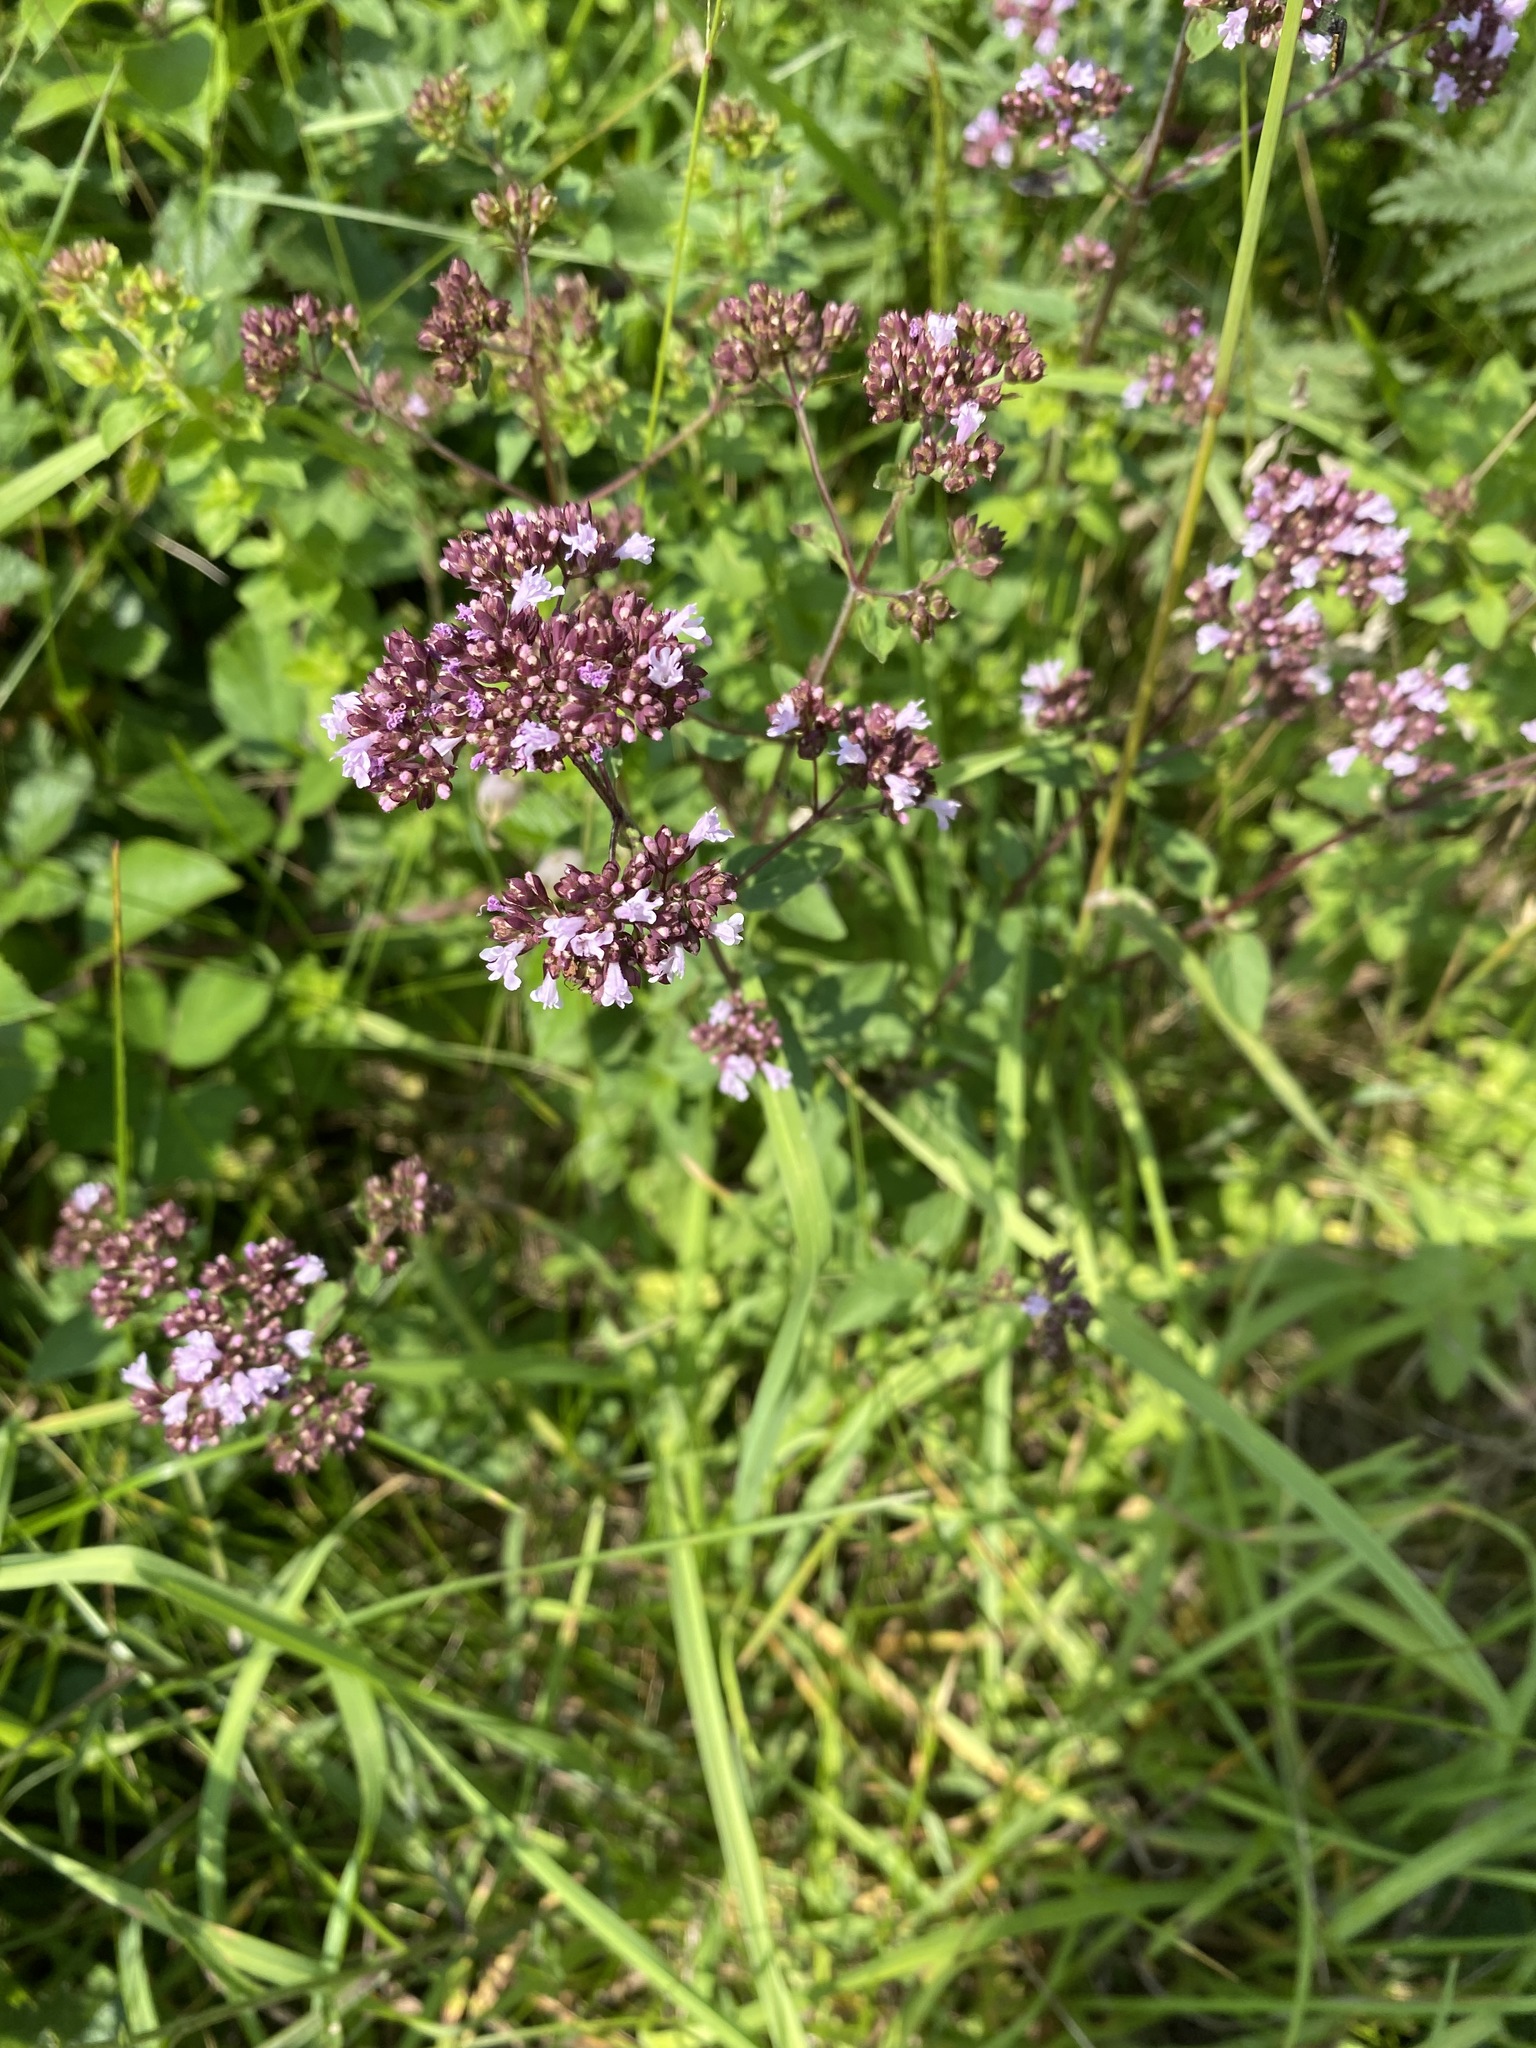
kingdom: Plantae
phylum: Tracheophyta
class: Magnoliopsida
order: Lamiales
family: Lamiaceae
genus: Origanum
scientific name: Origanum vulgare
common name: Wild marjoram
